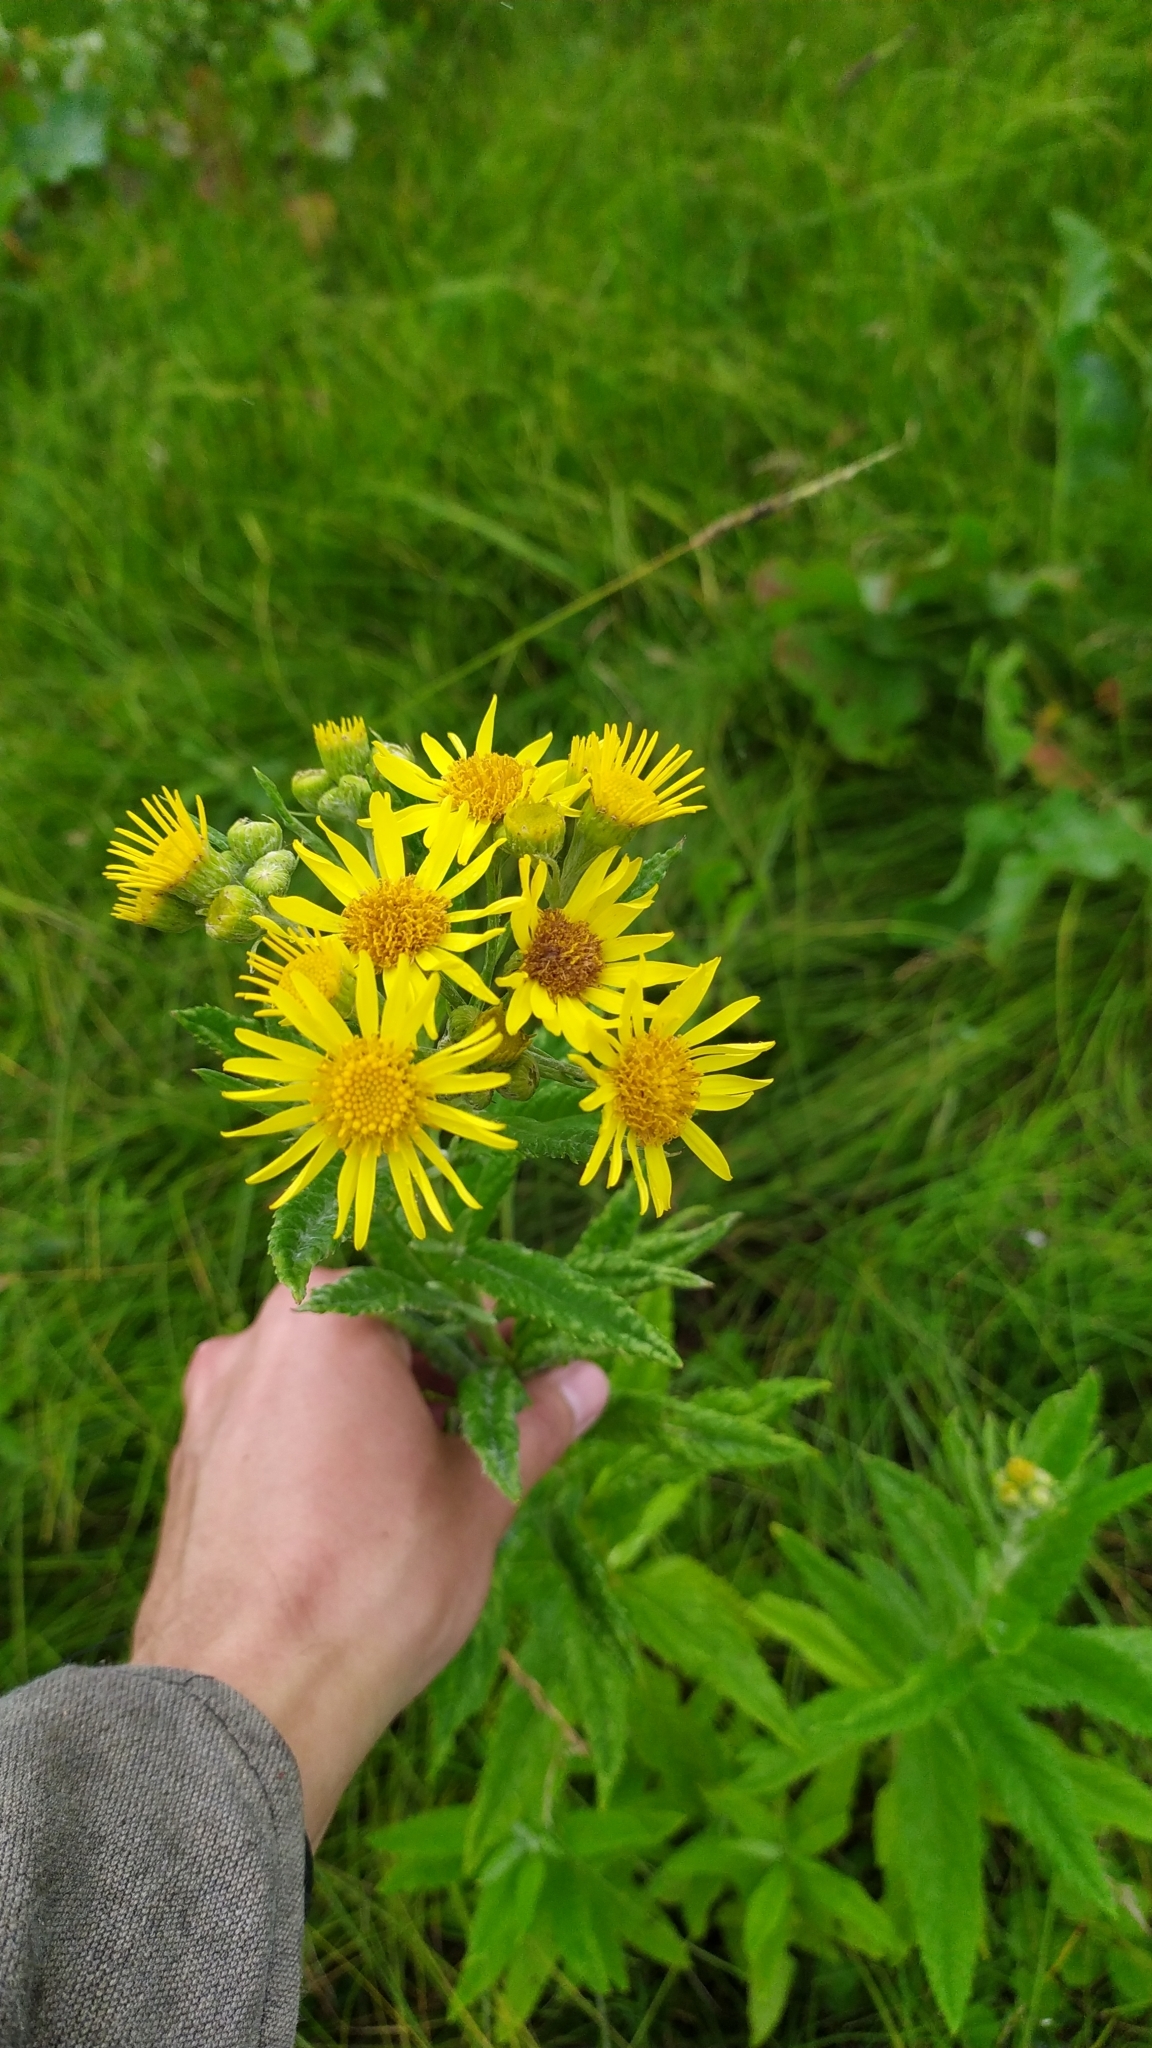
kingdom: Plantae
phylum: Tracheophyta
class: Magnoliopsida
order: Asterales
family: Asteraceae
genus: Jacobaea
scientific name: Jacobaea paludosa
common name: Fen ragwort
